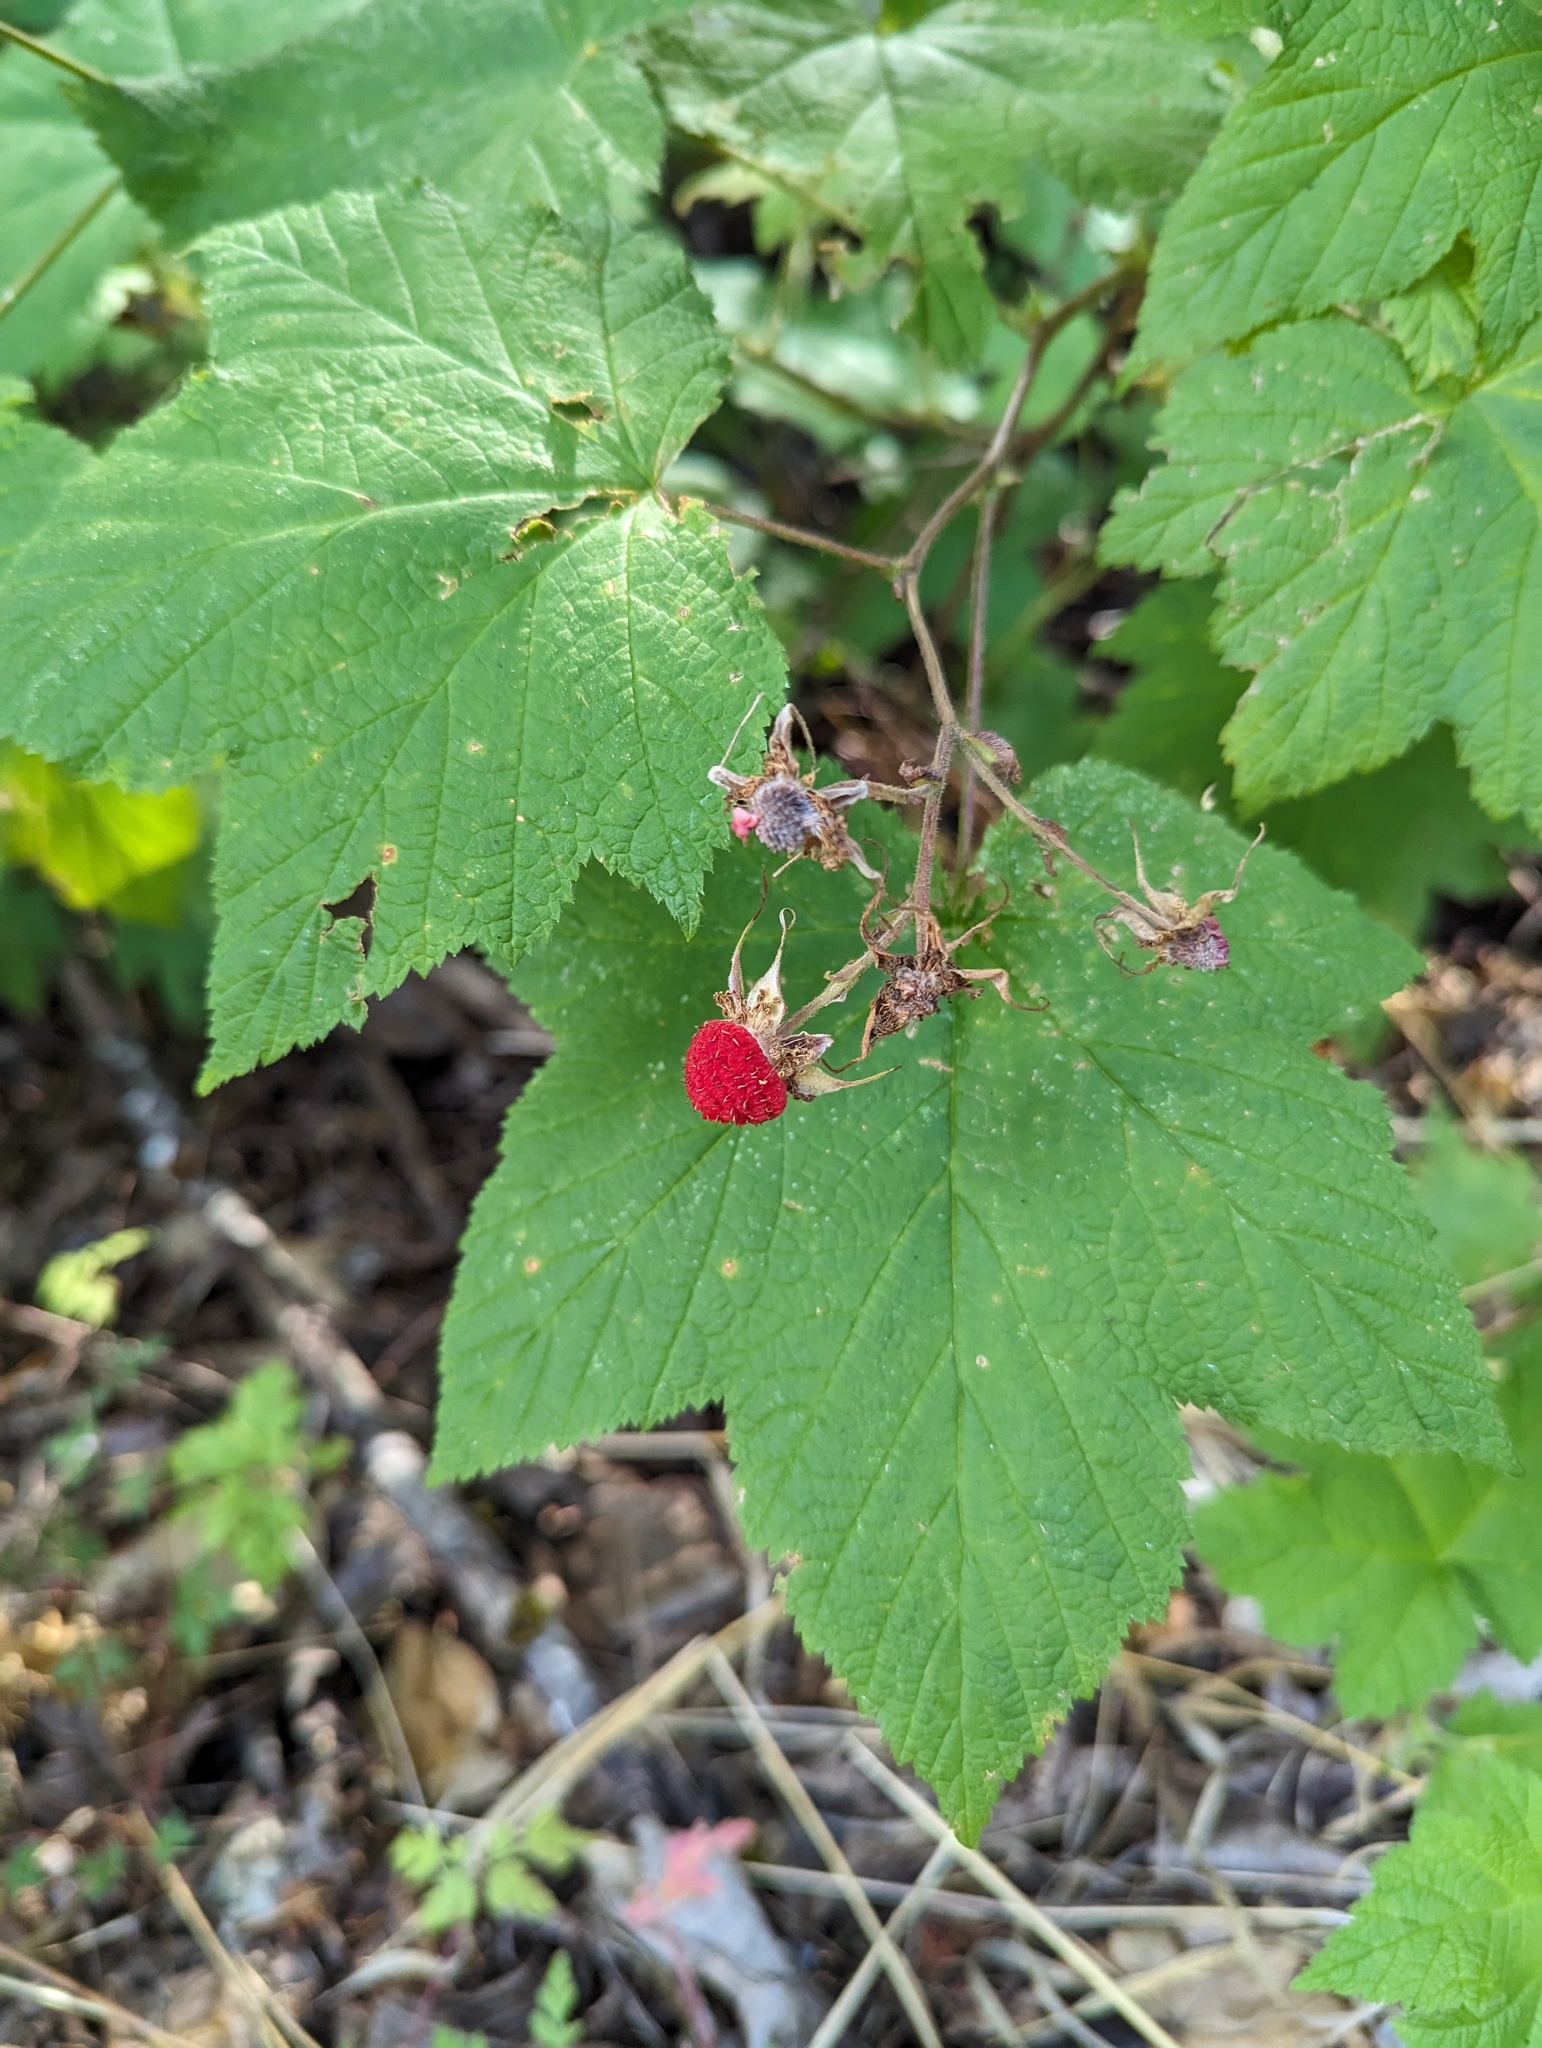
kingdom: Plantae
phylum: Tracheophyta
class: Magnoliopsida
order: Rosales
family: Rosaceae
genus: Rubus
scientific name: Rubus parviflorus
